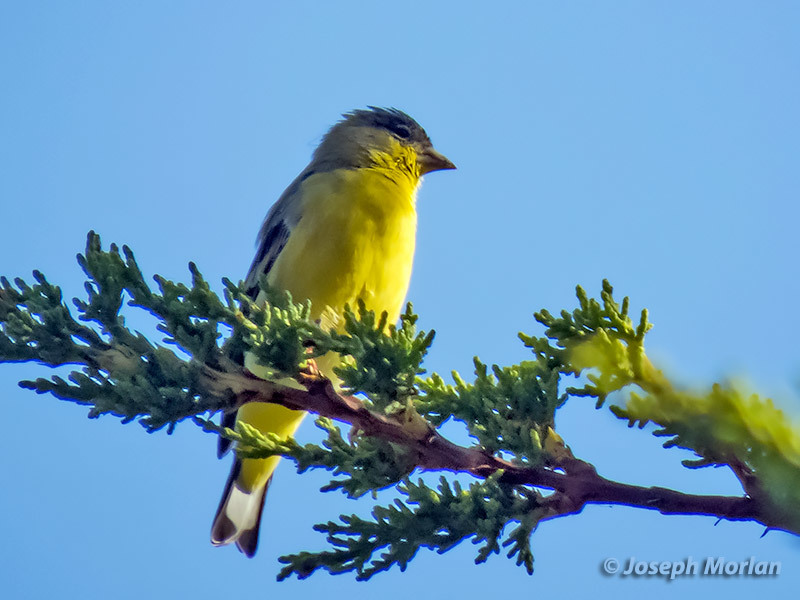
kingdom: Animalia
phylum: Chordata
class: Aves
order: Passeriformes
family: Fringillidae
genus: Spinus
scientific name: Spinus psaltria
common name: Lesser goldfinch
